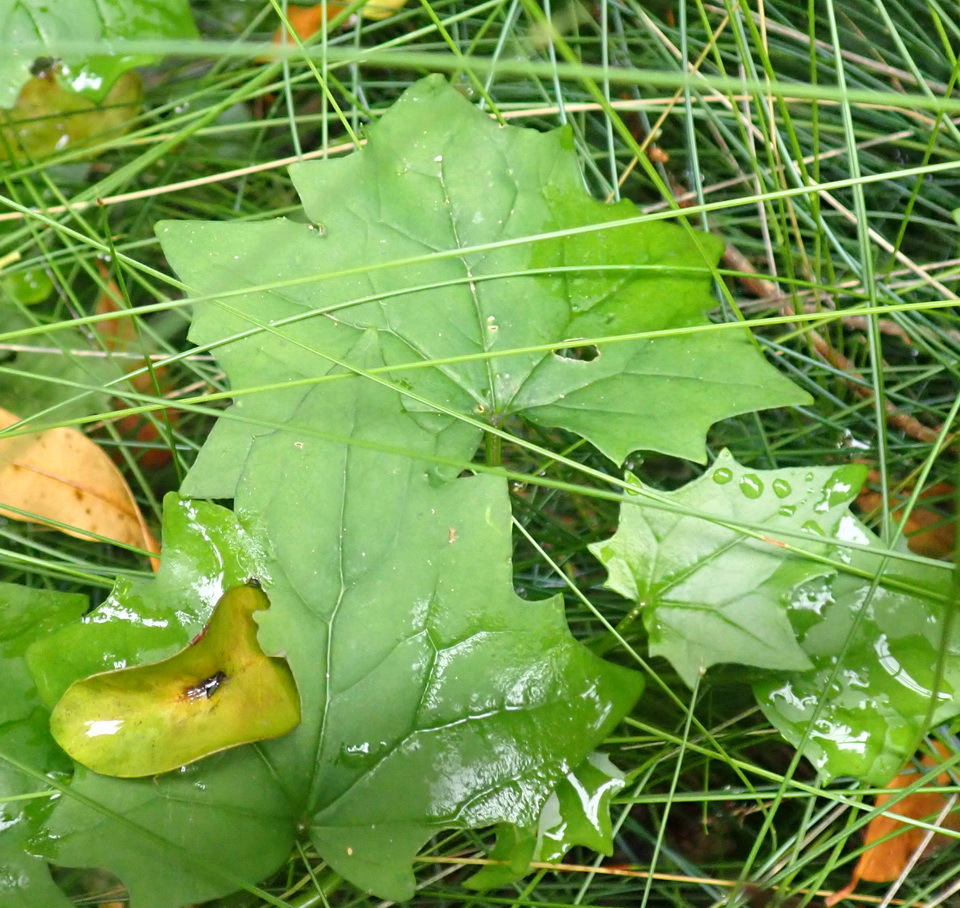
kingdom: Plantae
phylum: Tracheophyta
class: Magnoliopsida
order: Asterales
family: Asteraceae
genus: Delairea
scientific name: Delairea odorata
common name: Cape-ivy
